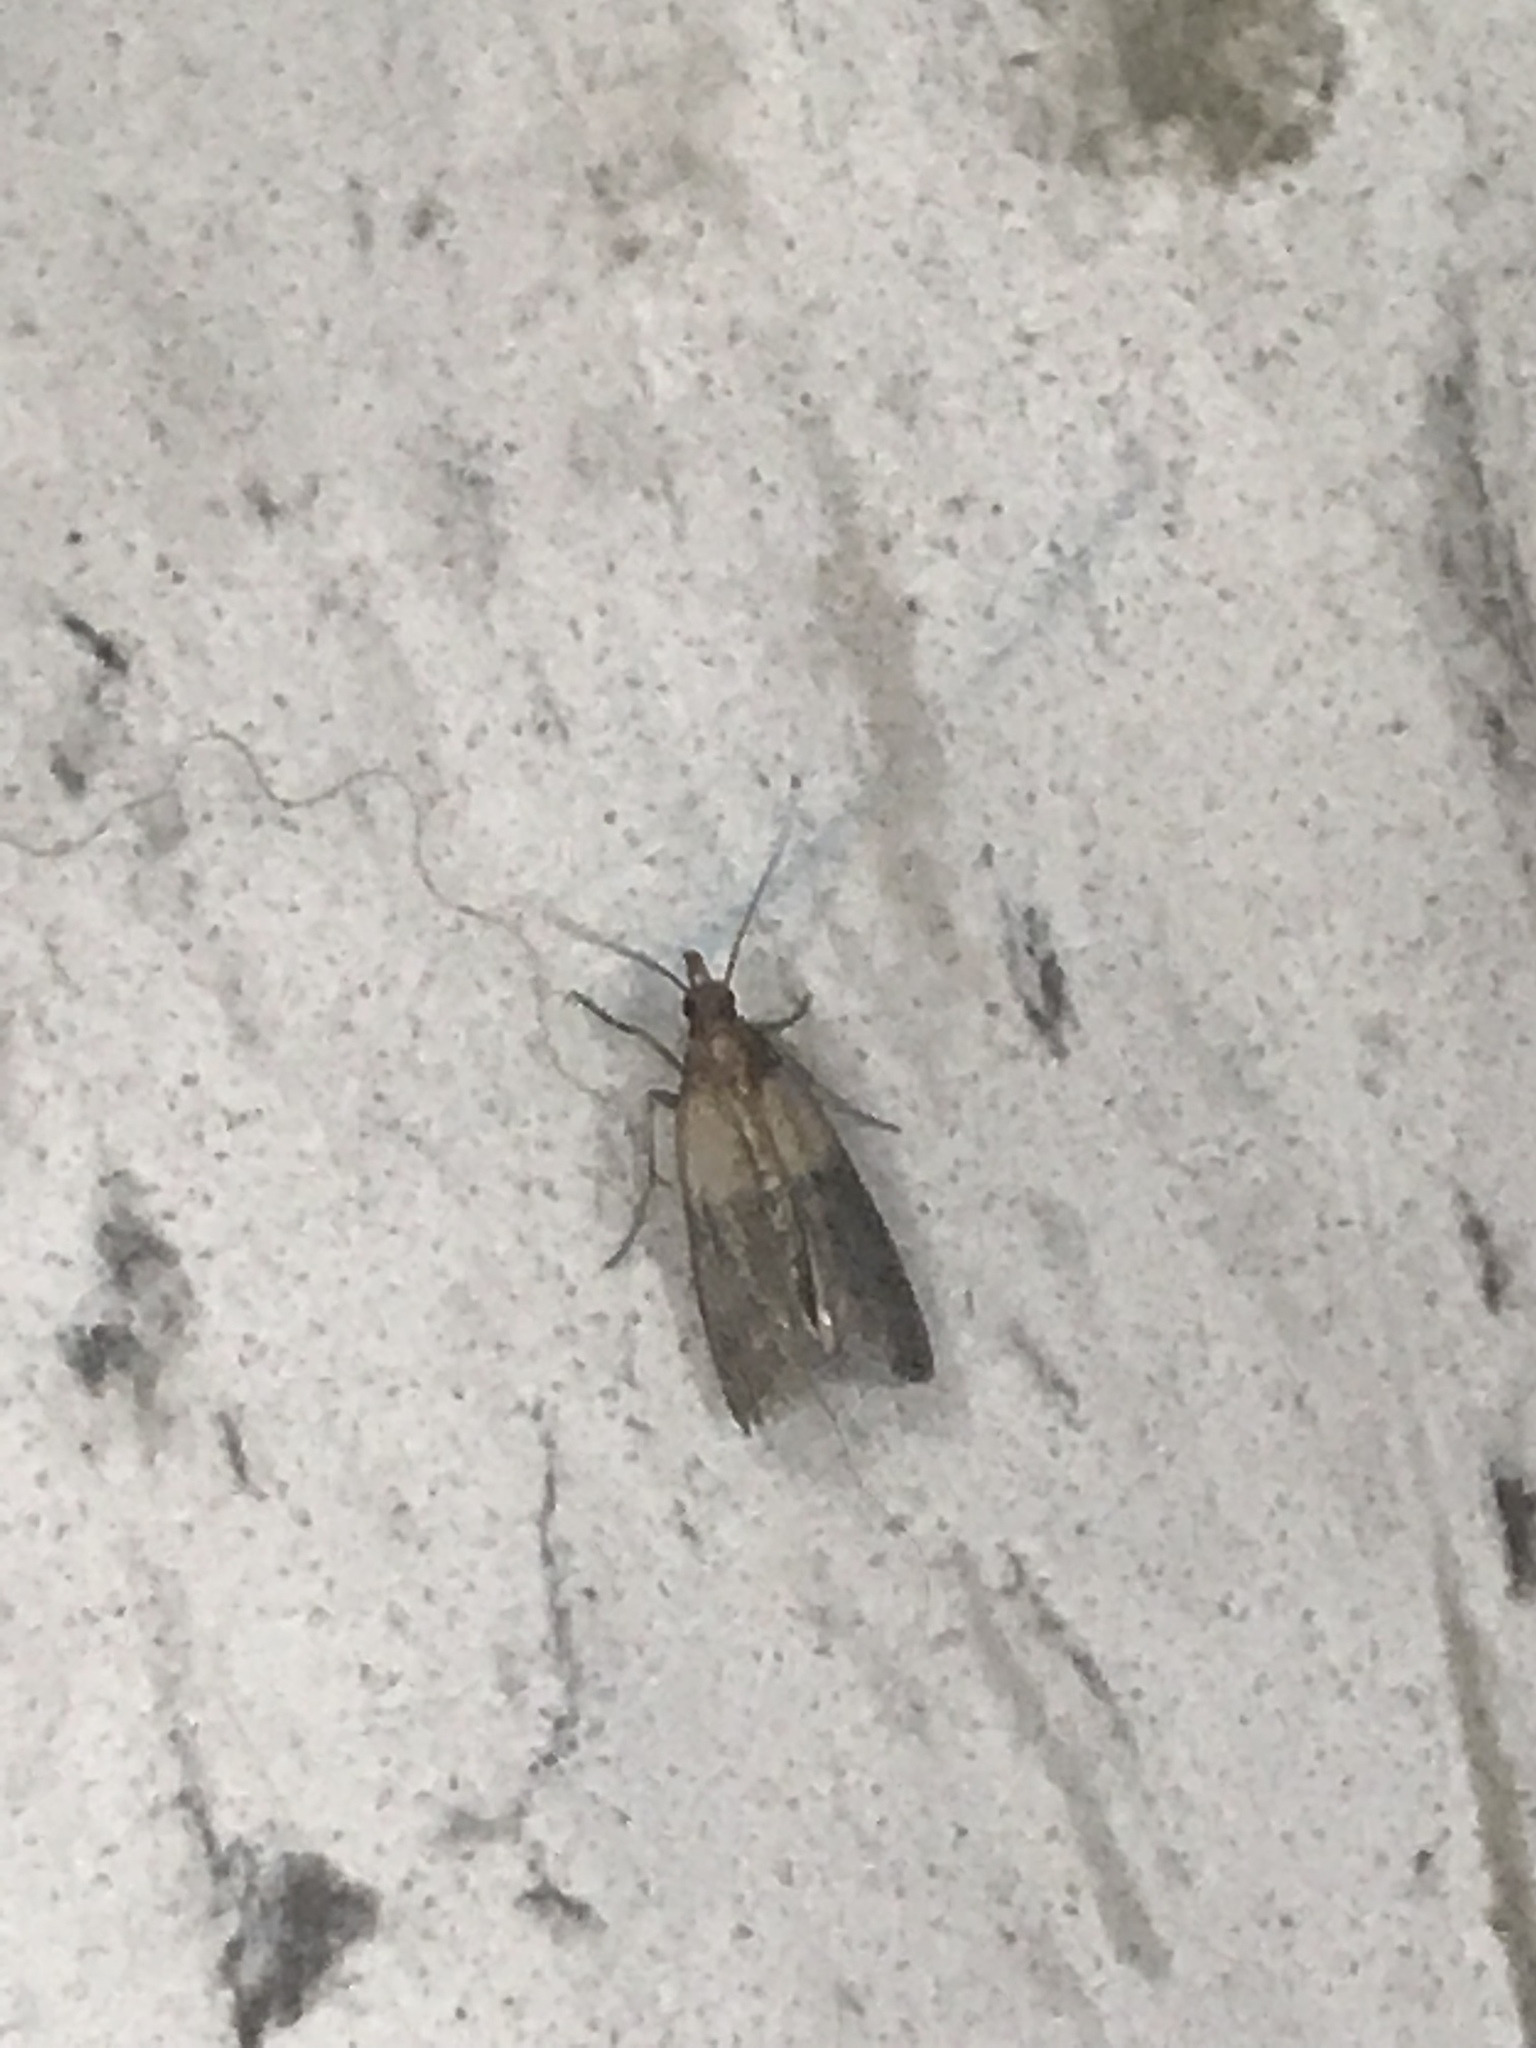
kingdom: Animalia
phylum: Arthropoda
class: Insecta
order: Lepidoptera
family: Pyralidae
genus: Plodia
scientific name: Plodia interpunctella
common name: Indian meal moth
